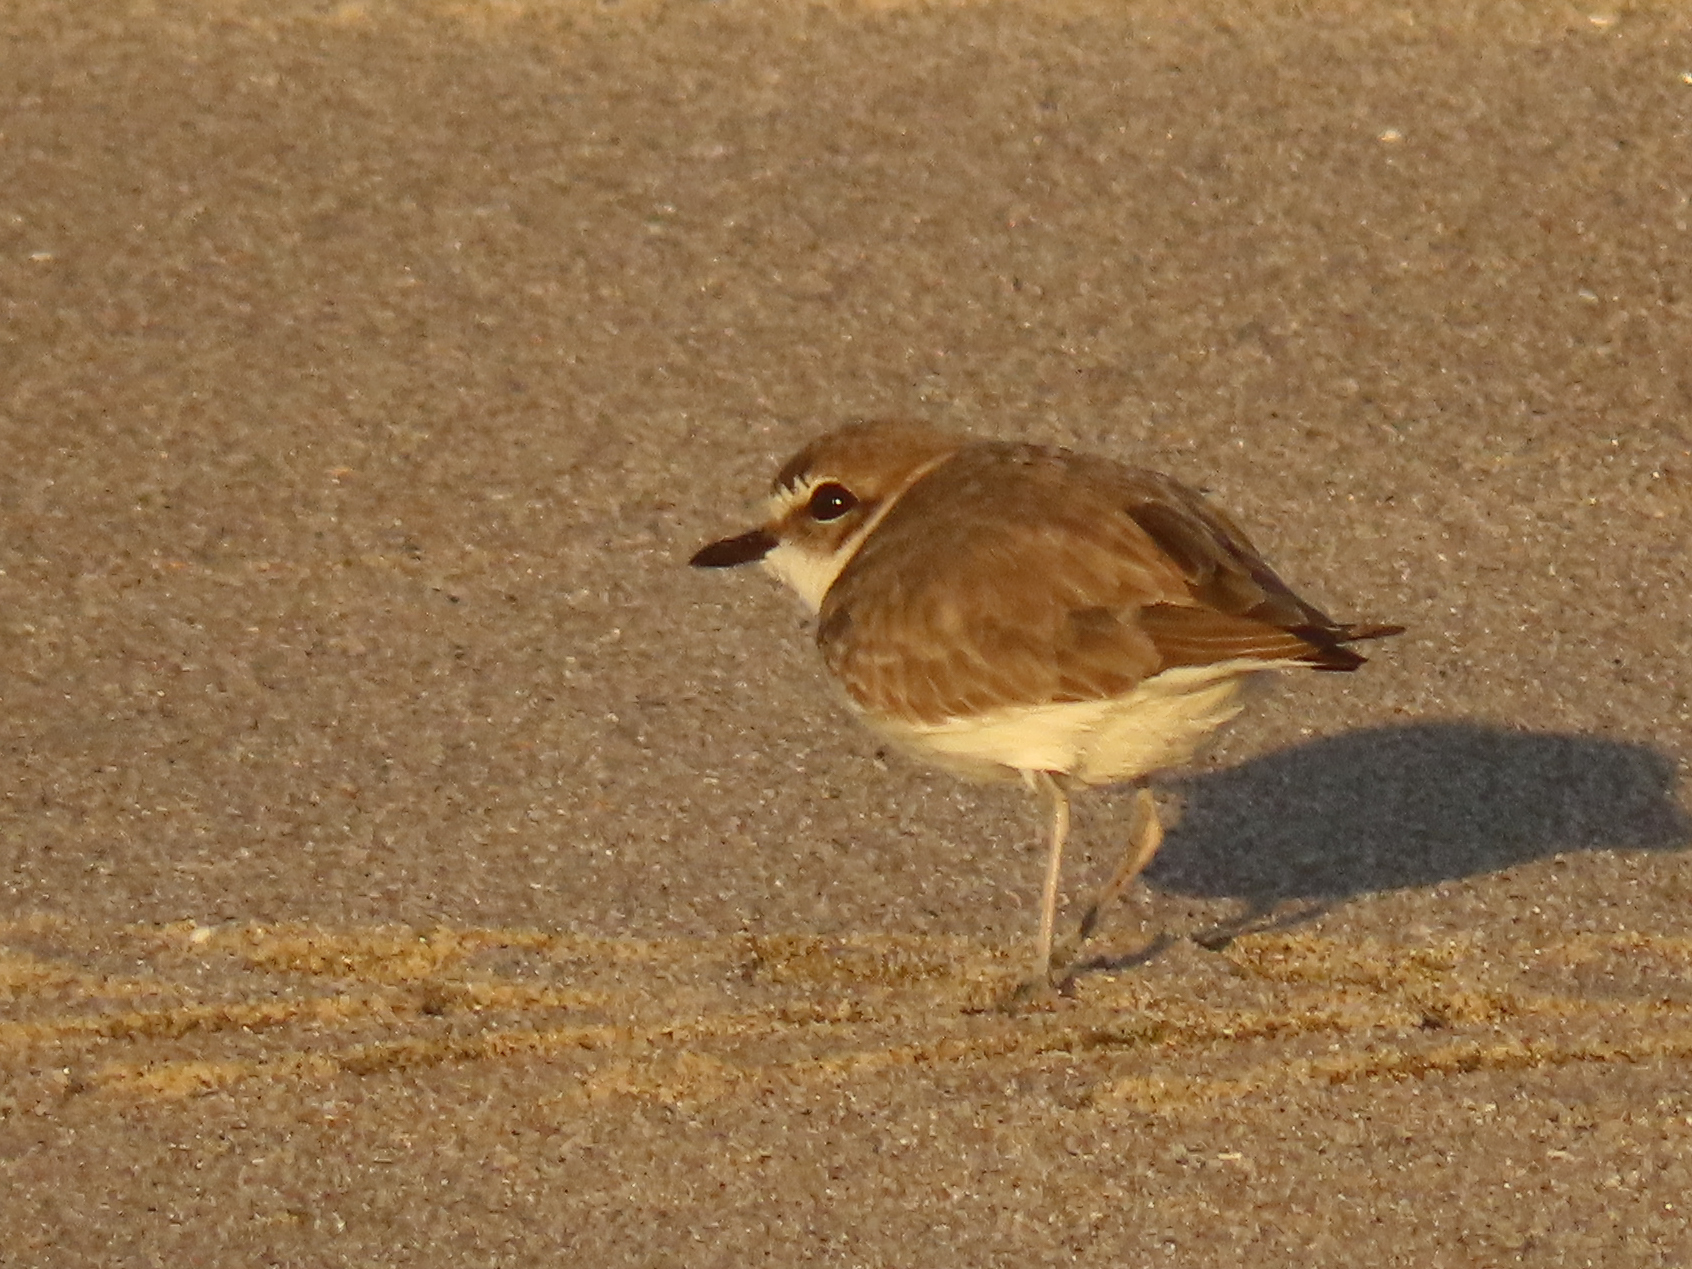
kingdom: Animalia
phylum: Chordata
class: Aves
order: Charadriiformes
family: Charadriidae
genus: Anarhynchus
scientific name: Anarhynchus
